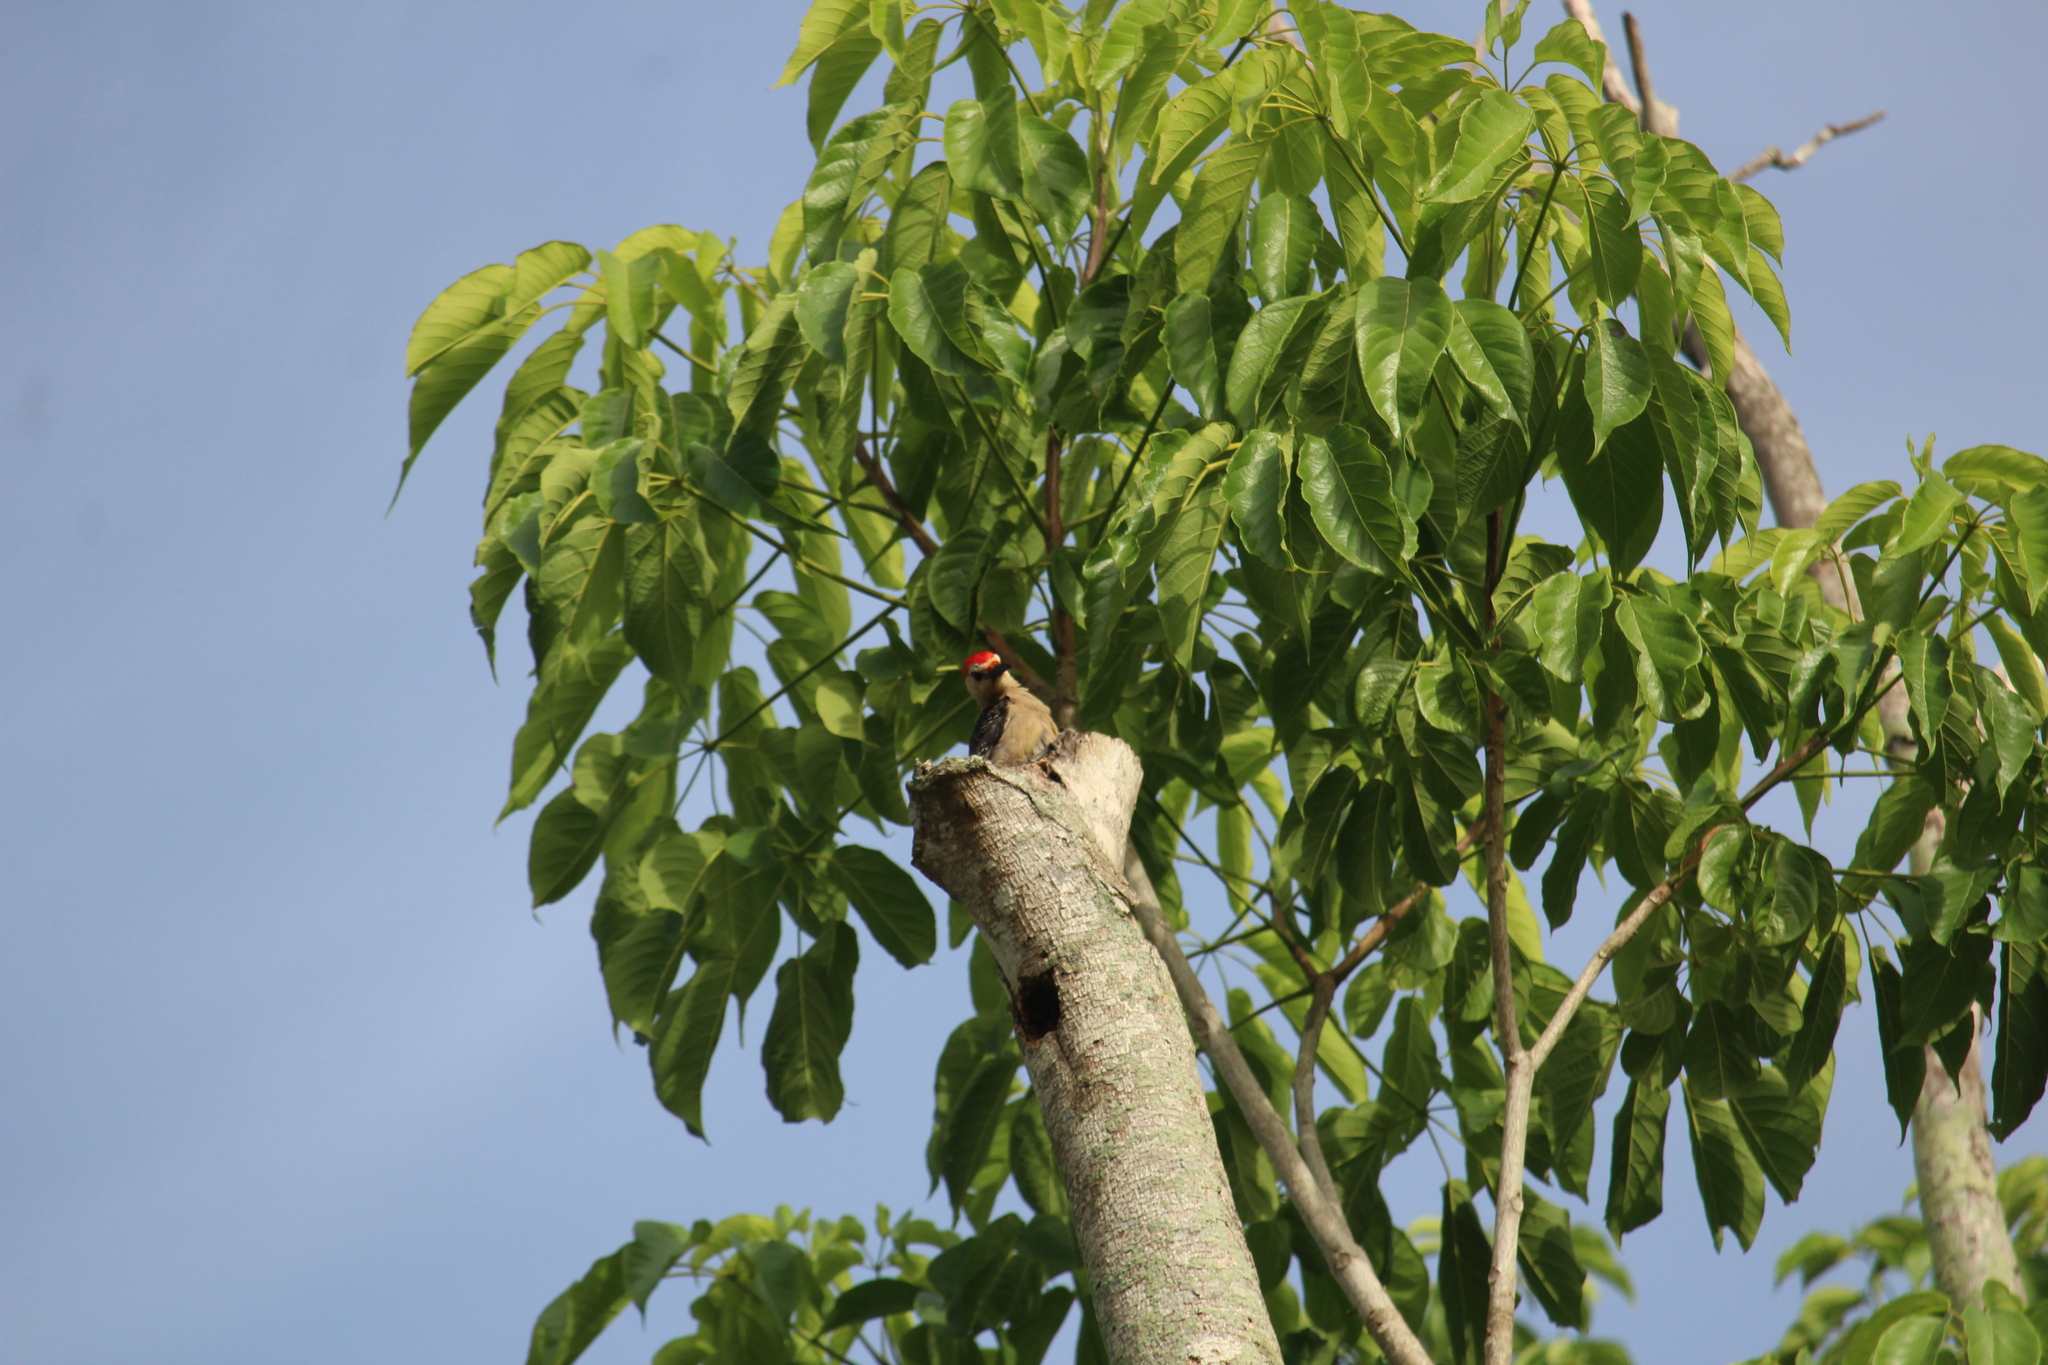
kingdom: Animalia
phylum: Chordata
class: Aves
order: Piciformes
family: Picidae
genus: Melanerpes
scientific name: Melanerpes aurifrons
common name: Golden-fronted woodpecker
